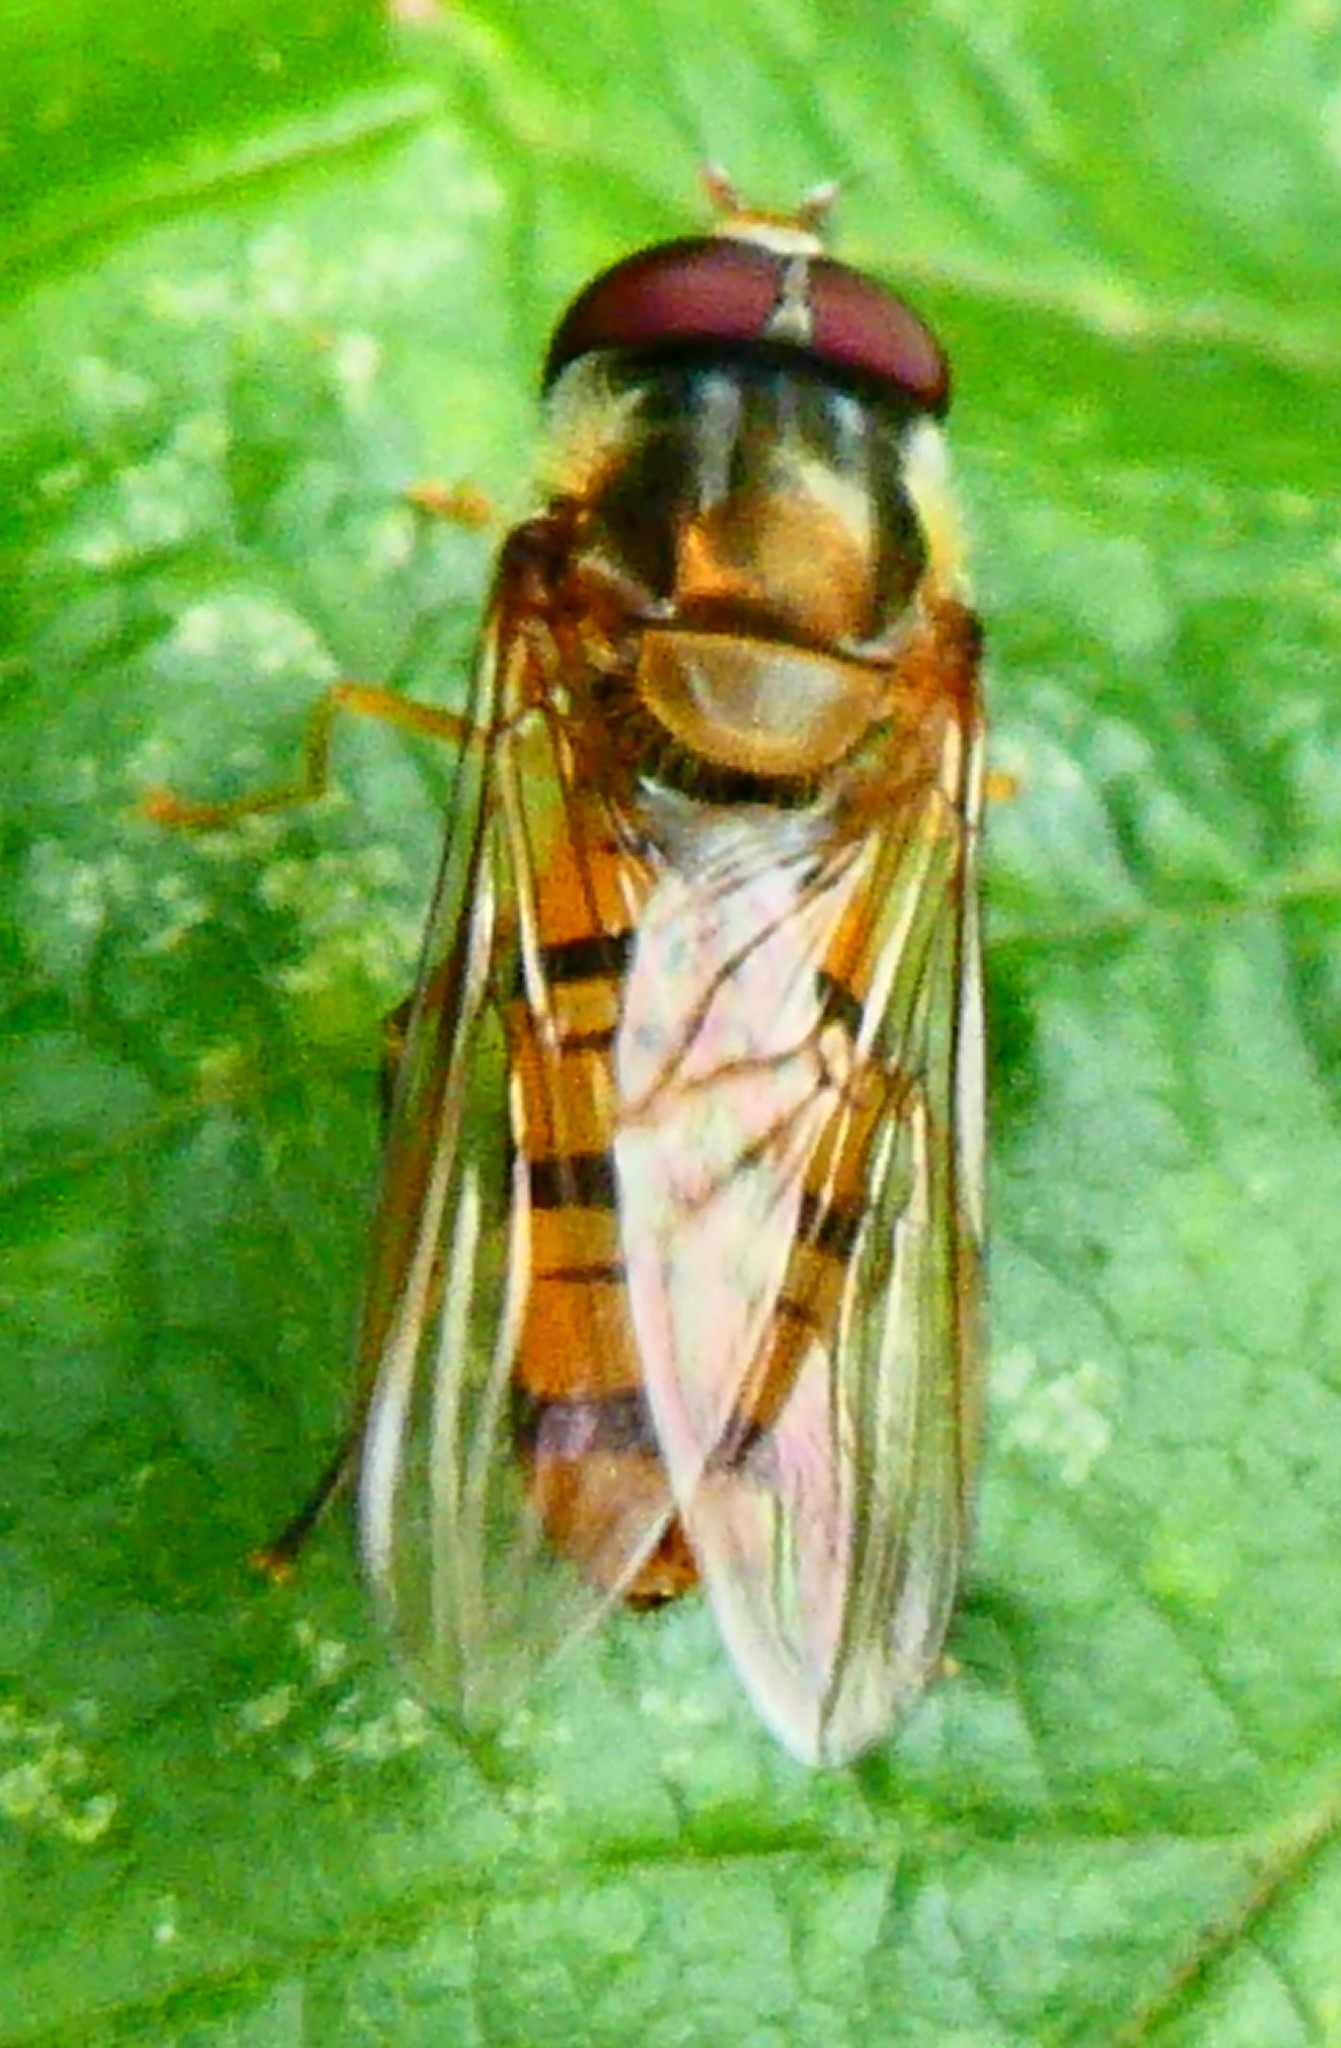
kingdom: Animalia
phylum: Arthropoda
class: Insecta
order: Diptera
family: Syrphidae
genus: Episyrphus
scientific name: Episyrphus balteatus
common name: Marmalade hoverfly
